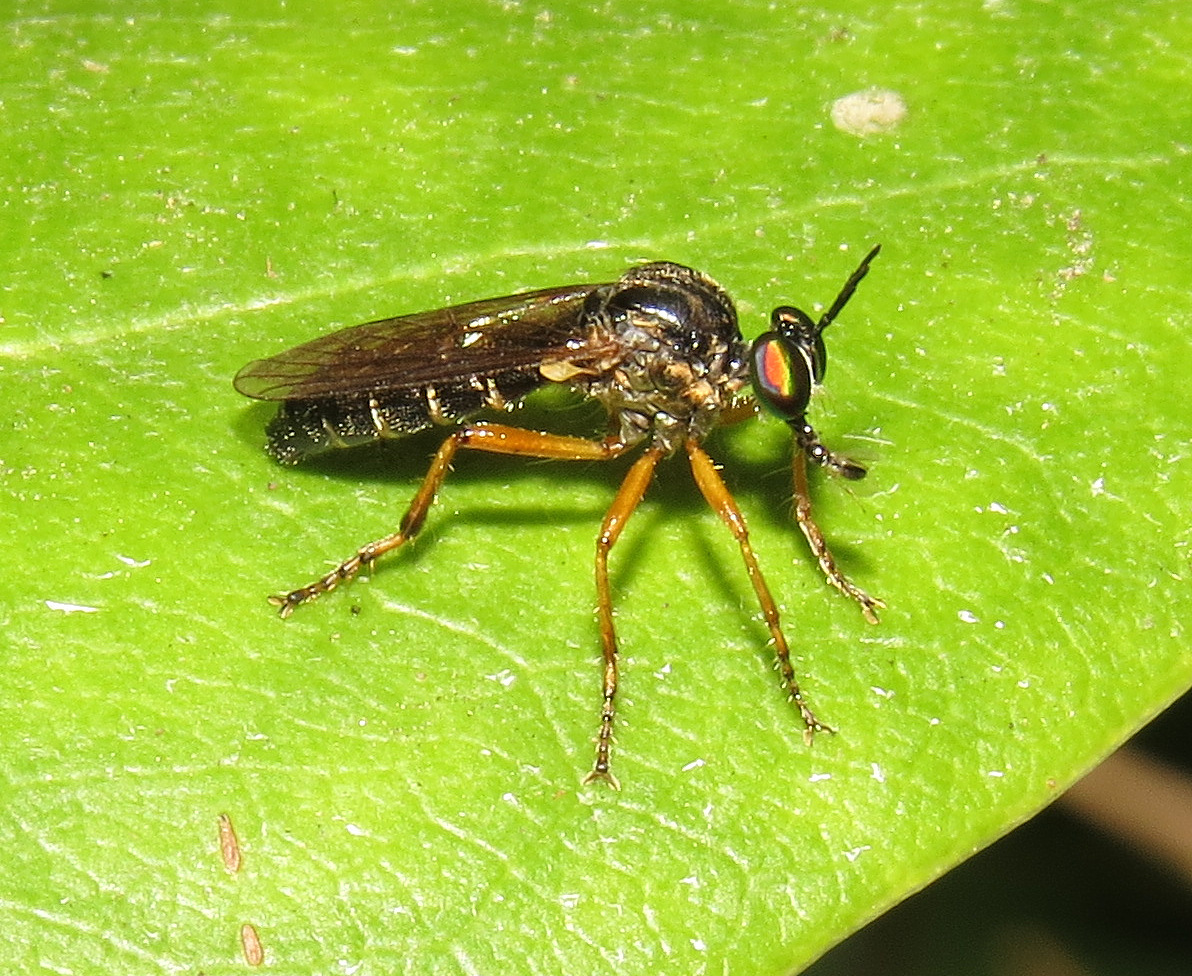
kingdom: Animalia
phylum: Arthropoda
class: Insecta
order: Diptera
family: Asilidae
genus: Taracticus
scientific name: Taracticus octopunctatus
